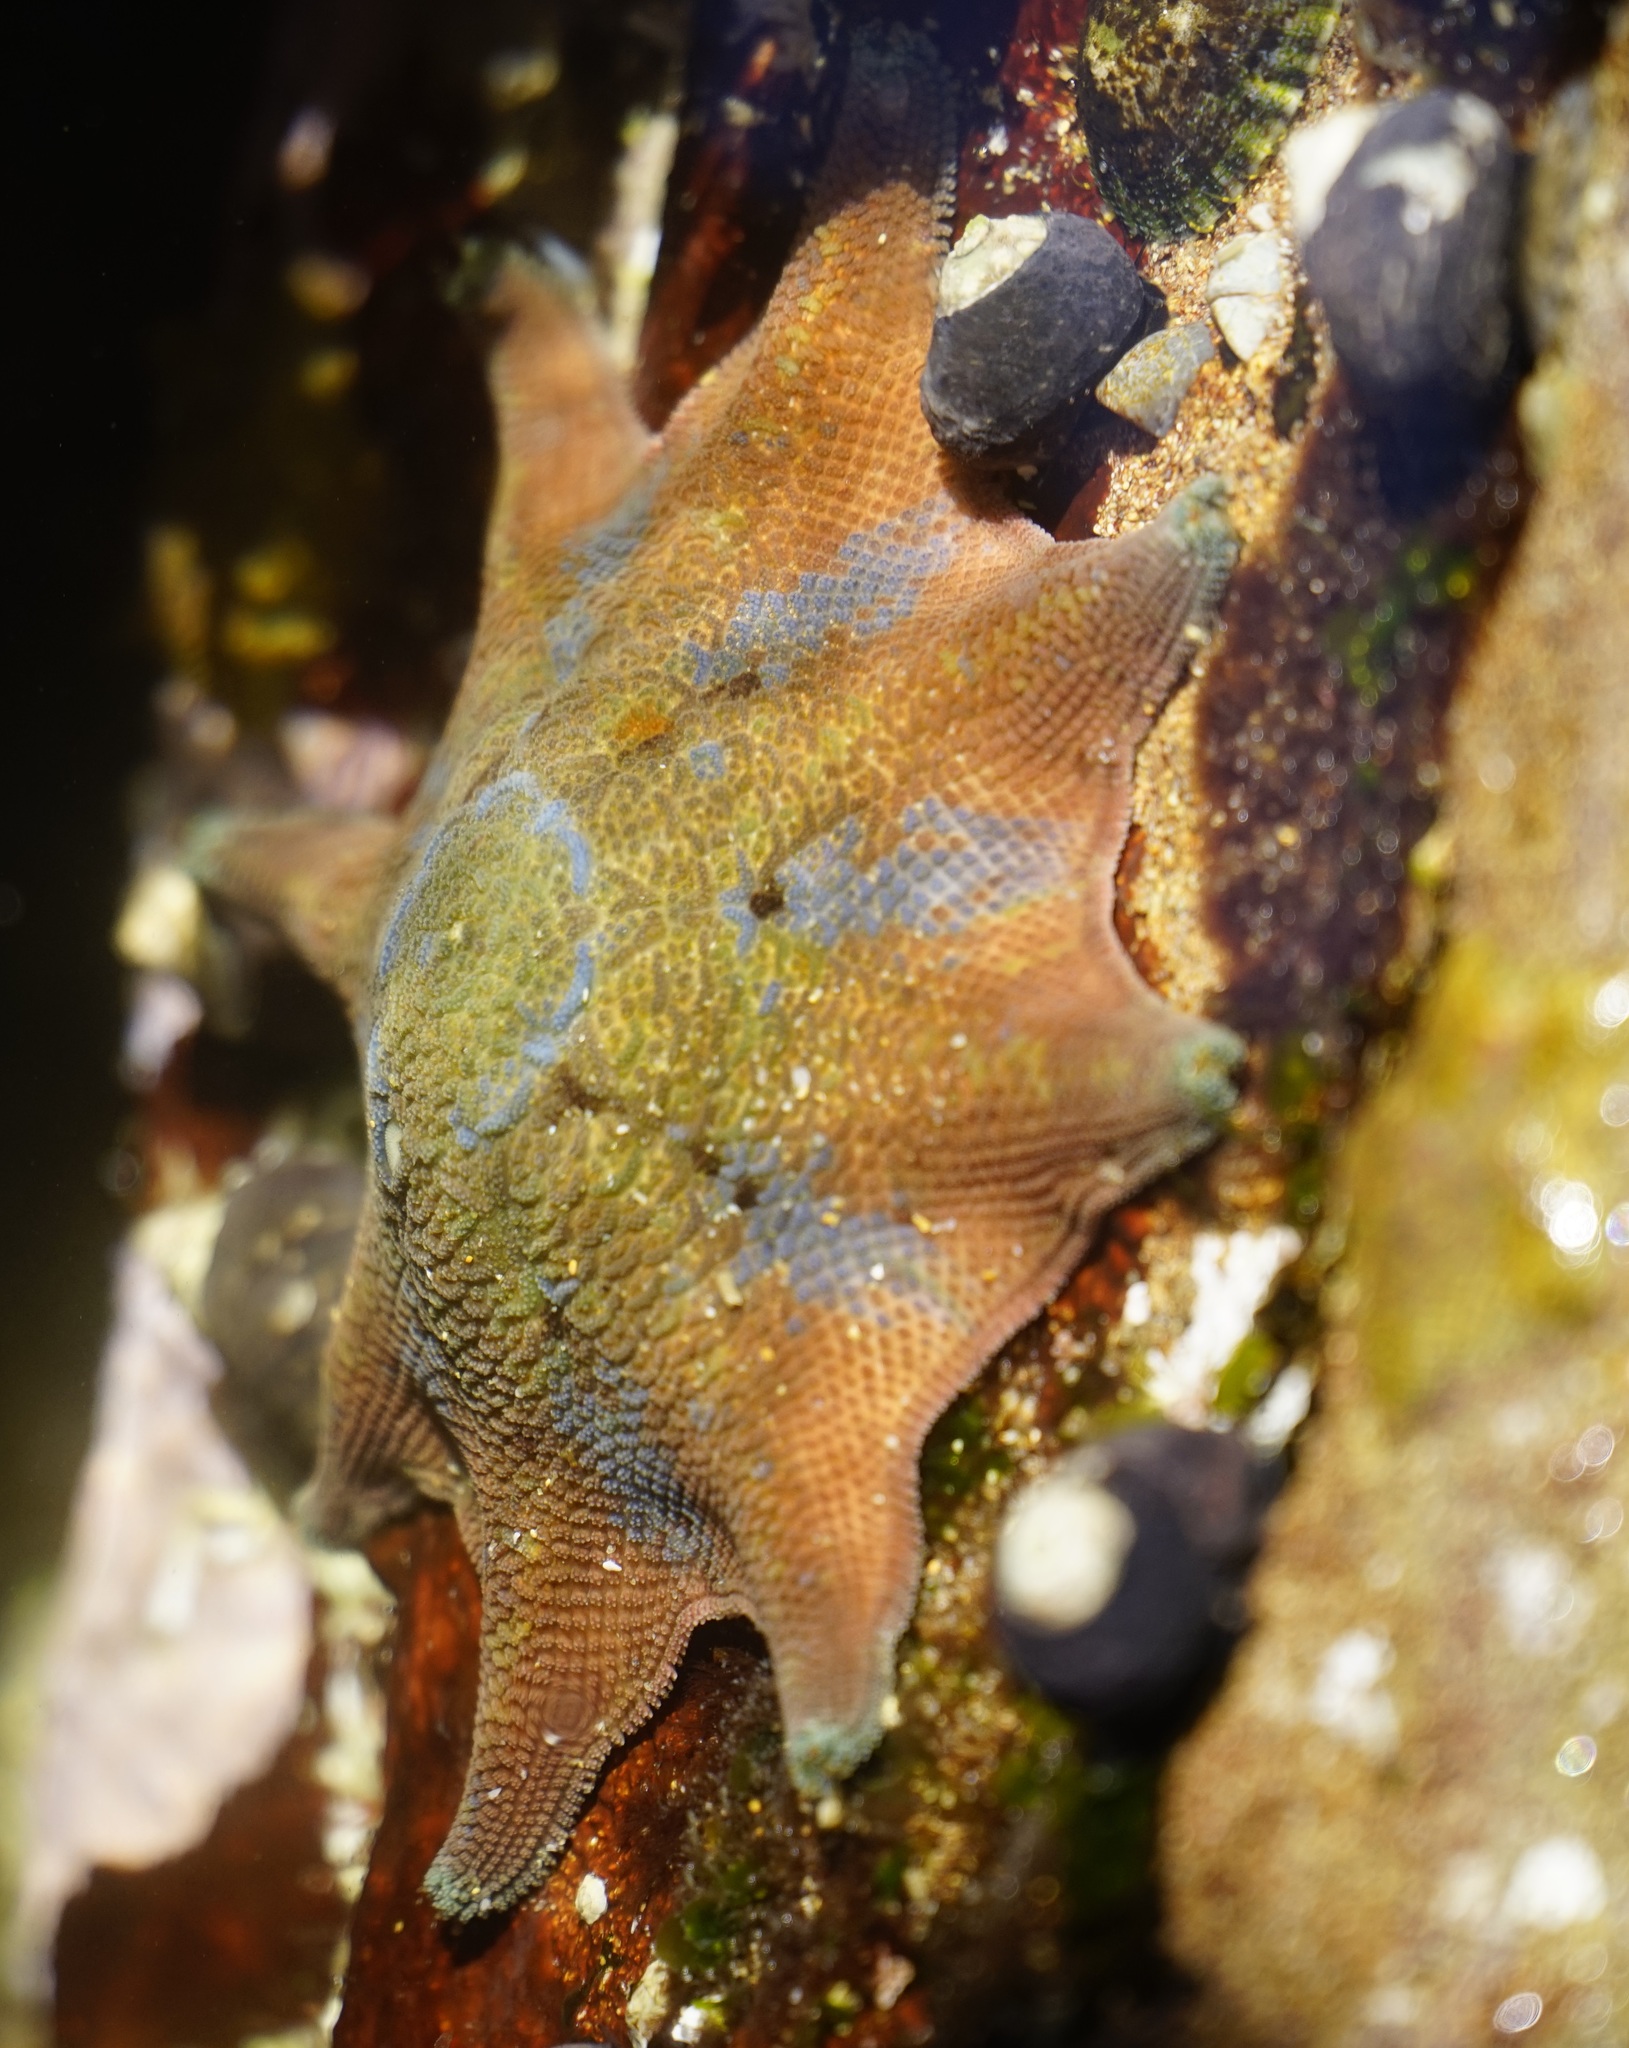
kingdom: Animalia
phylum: Echinodermata
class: Asteroidea
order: Valvatida
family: Asterinidae
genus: Meridiastra
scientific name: Meridiastra calcar
